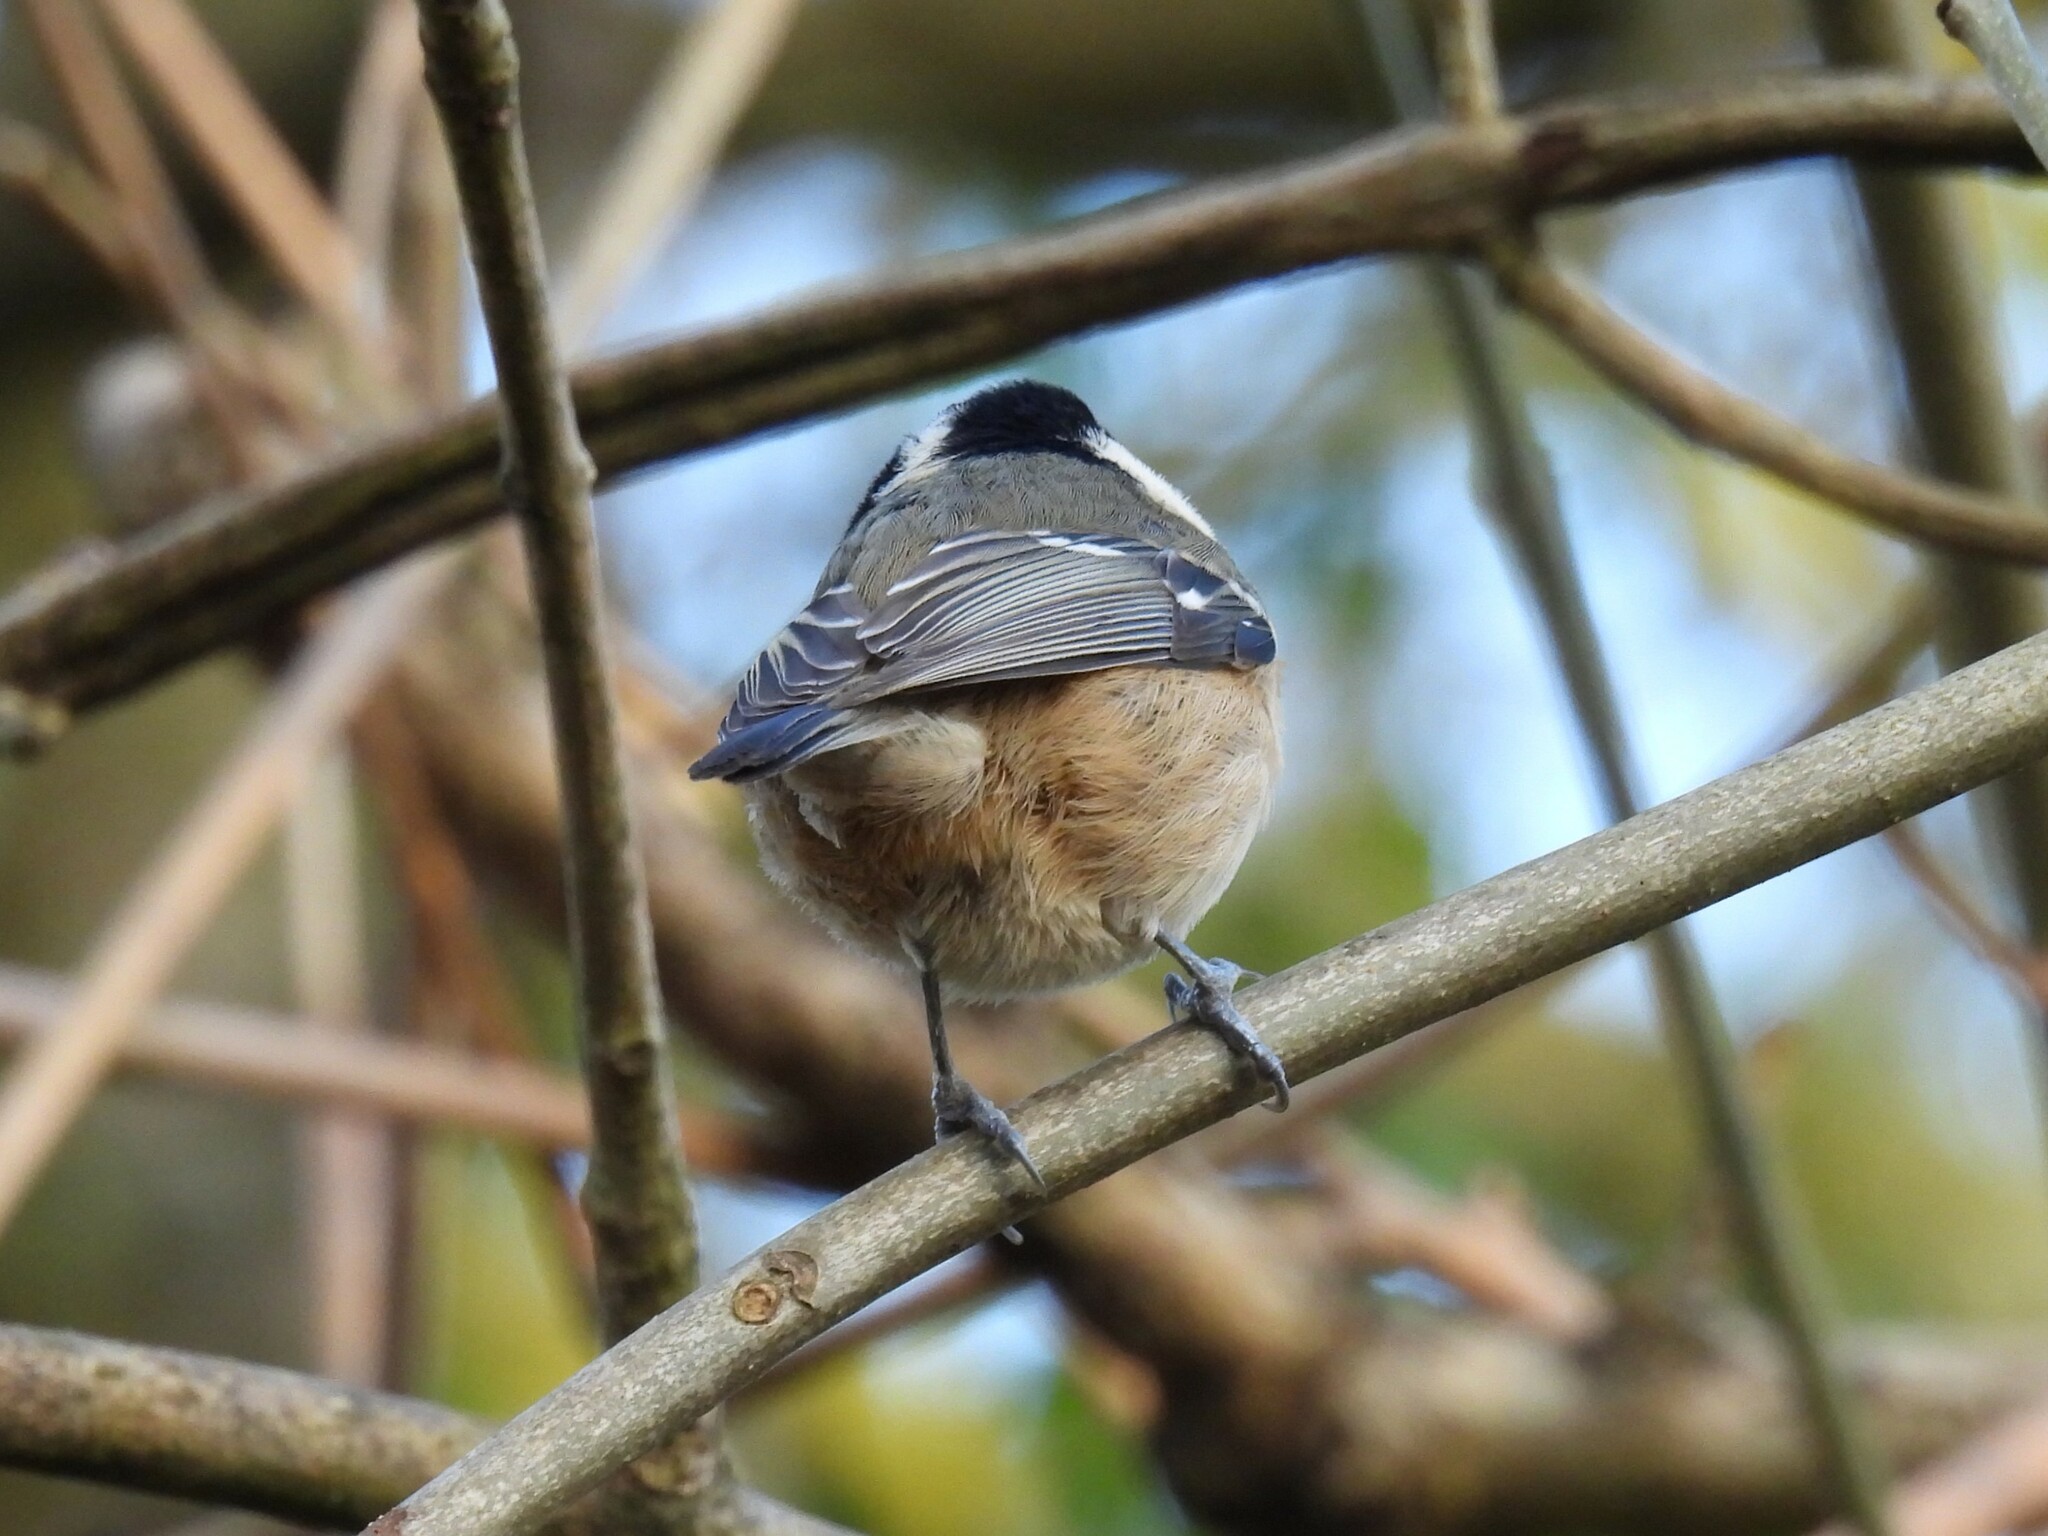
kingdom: Animalia
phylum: Chordata
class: Aves
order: Passeriformes
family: Paridae
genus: Periparus
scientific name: Periparus ater
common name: Coal tit
